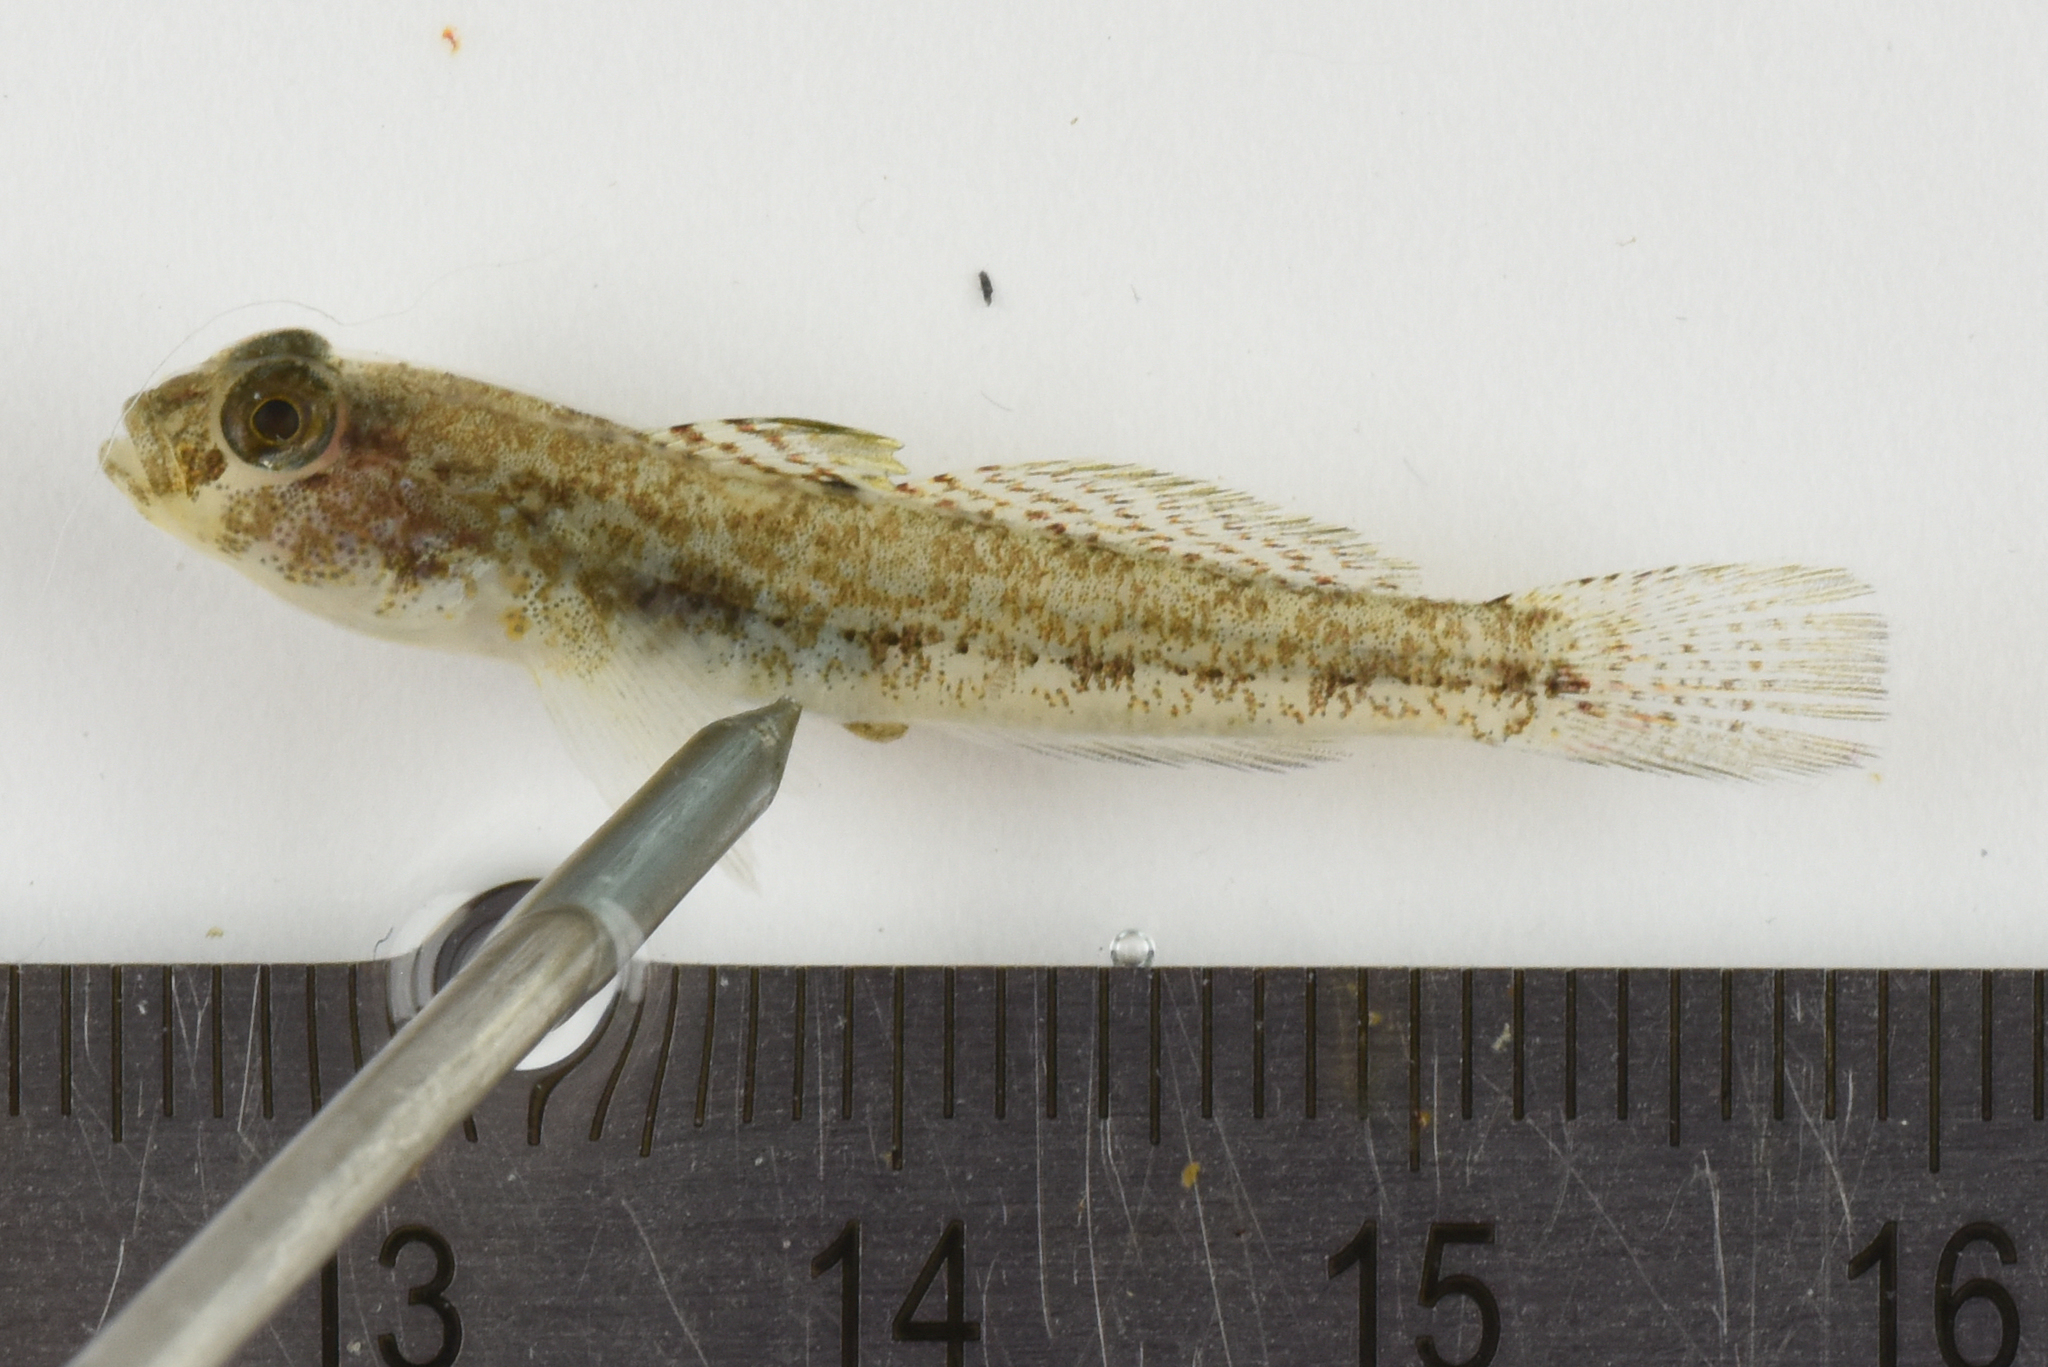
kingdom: Animalia
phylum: Chordata
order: Perciformes
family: Gobiidae
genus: Gobius
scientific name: Gobius niger
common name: Black goby
